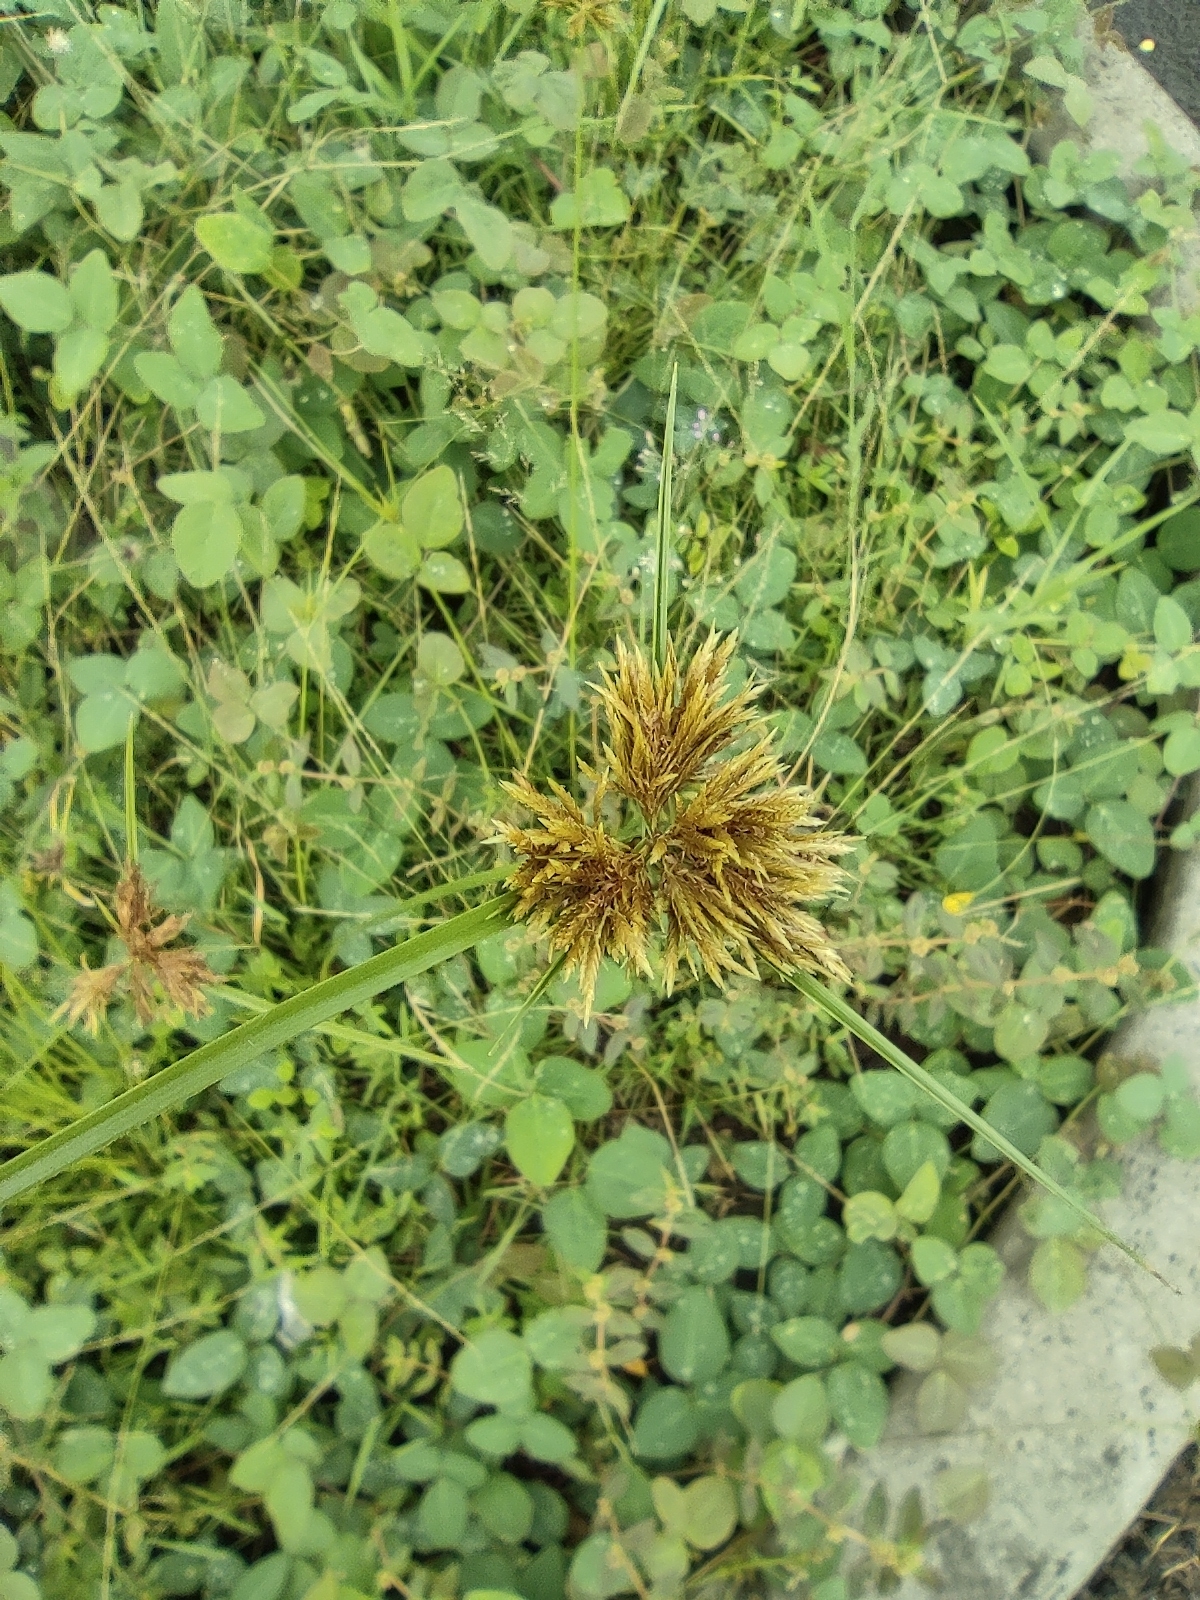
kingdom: Plantae
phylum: Tracheophyta
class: Liliopsida
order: Poales
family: Cyperaceae
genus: Cyperus
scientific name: Cyperus polystachyos
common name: Bunchy flat sedge
